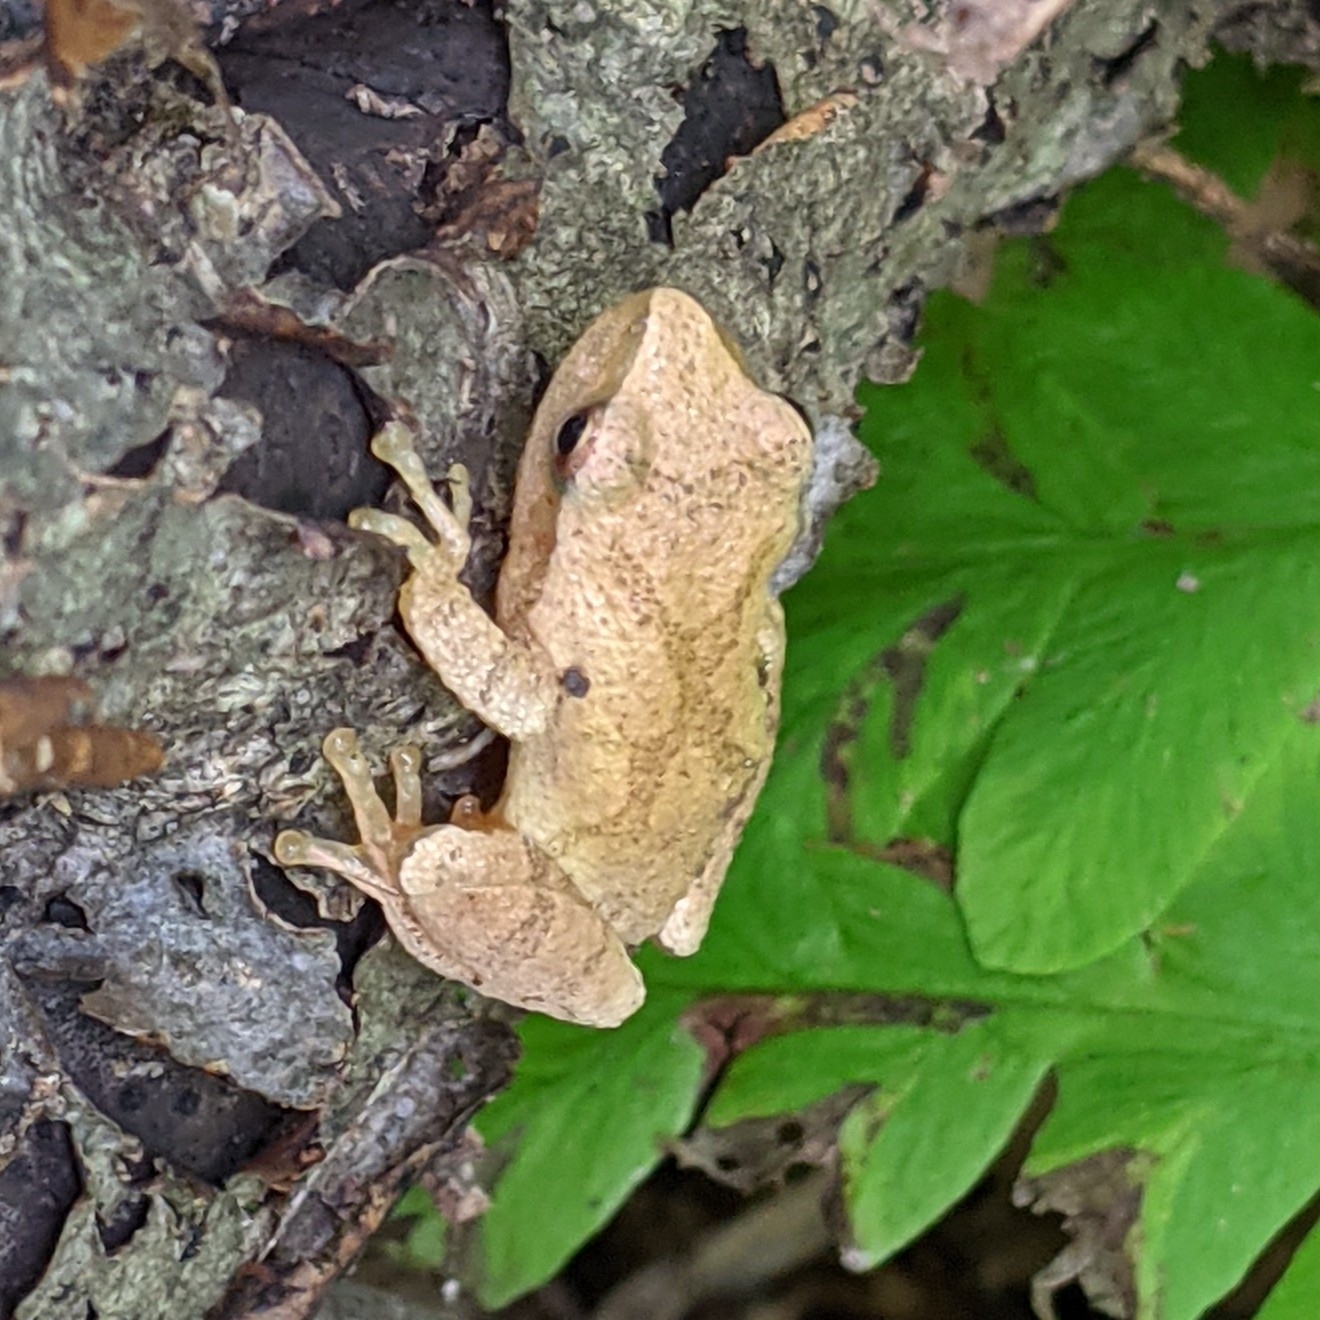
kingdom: Animalia
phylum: Chordata
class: Amphibia
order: Anura
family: Hylidae
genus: Pseudacris
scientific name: Pseudacris crucifer
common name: Spring peeper
